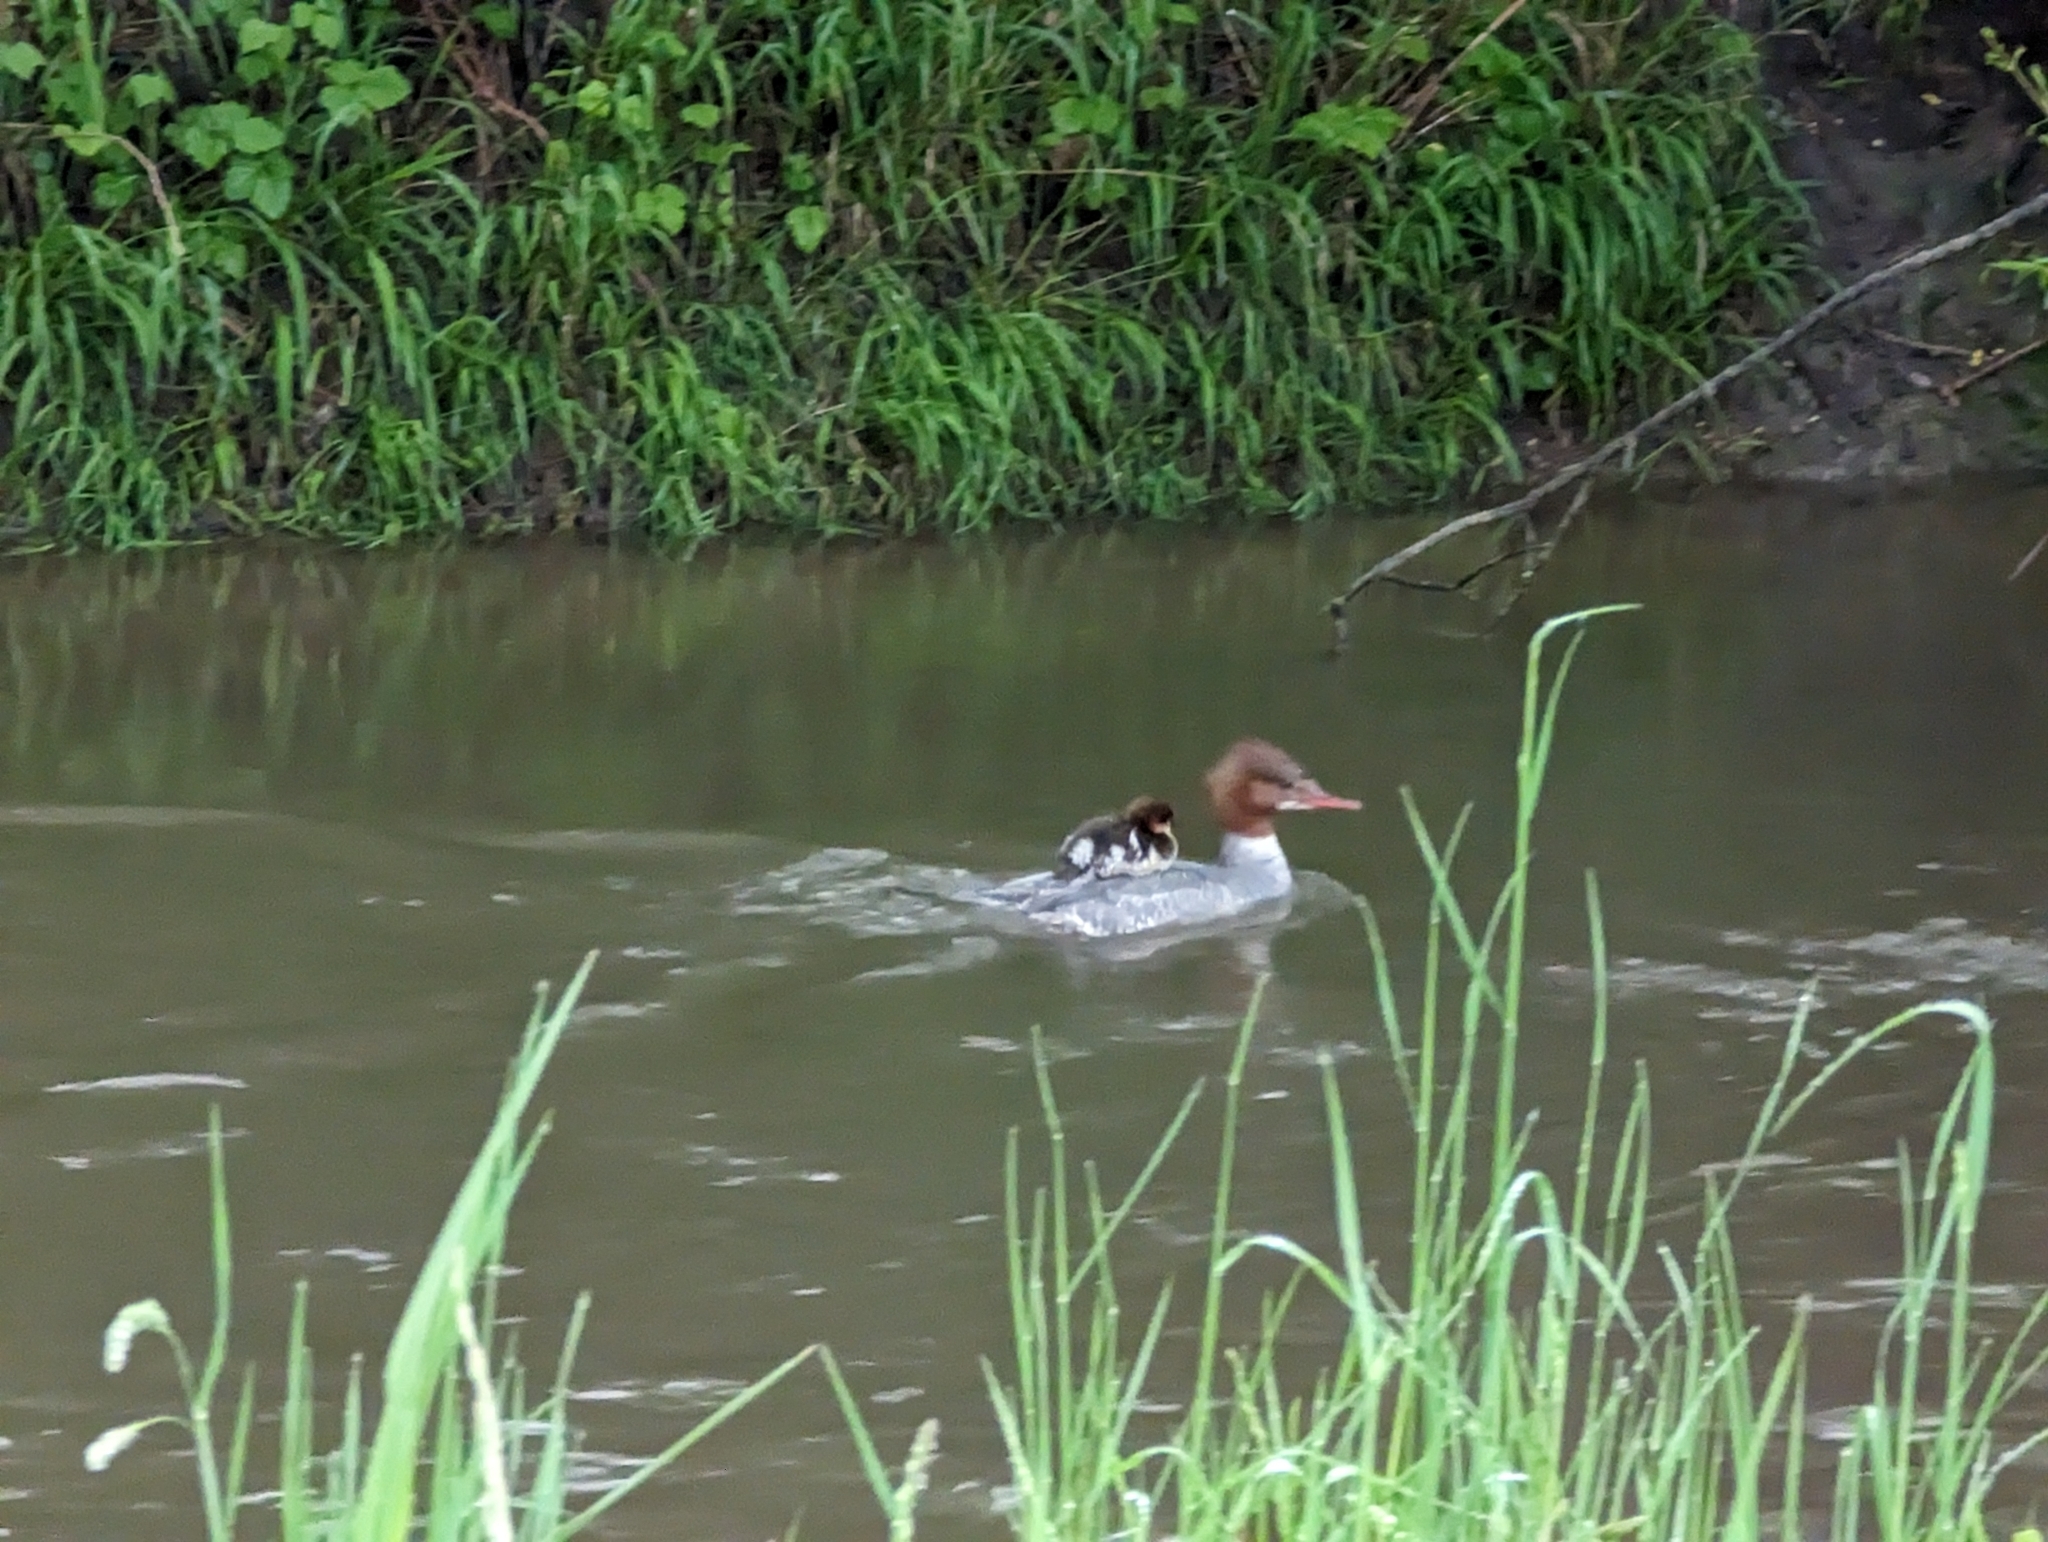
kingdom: Animalia
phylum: Chordata
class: Aves
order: Anseriformes
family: Anatidae
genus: Mergus
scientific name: Mergus merganser
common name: Common merganser
